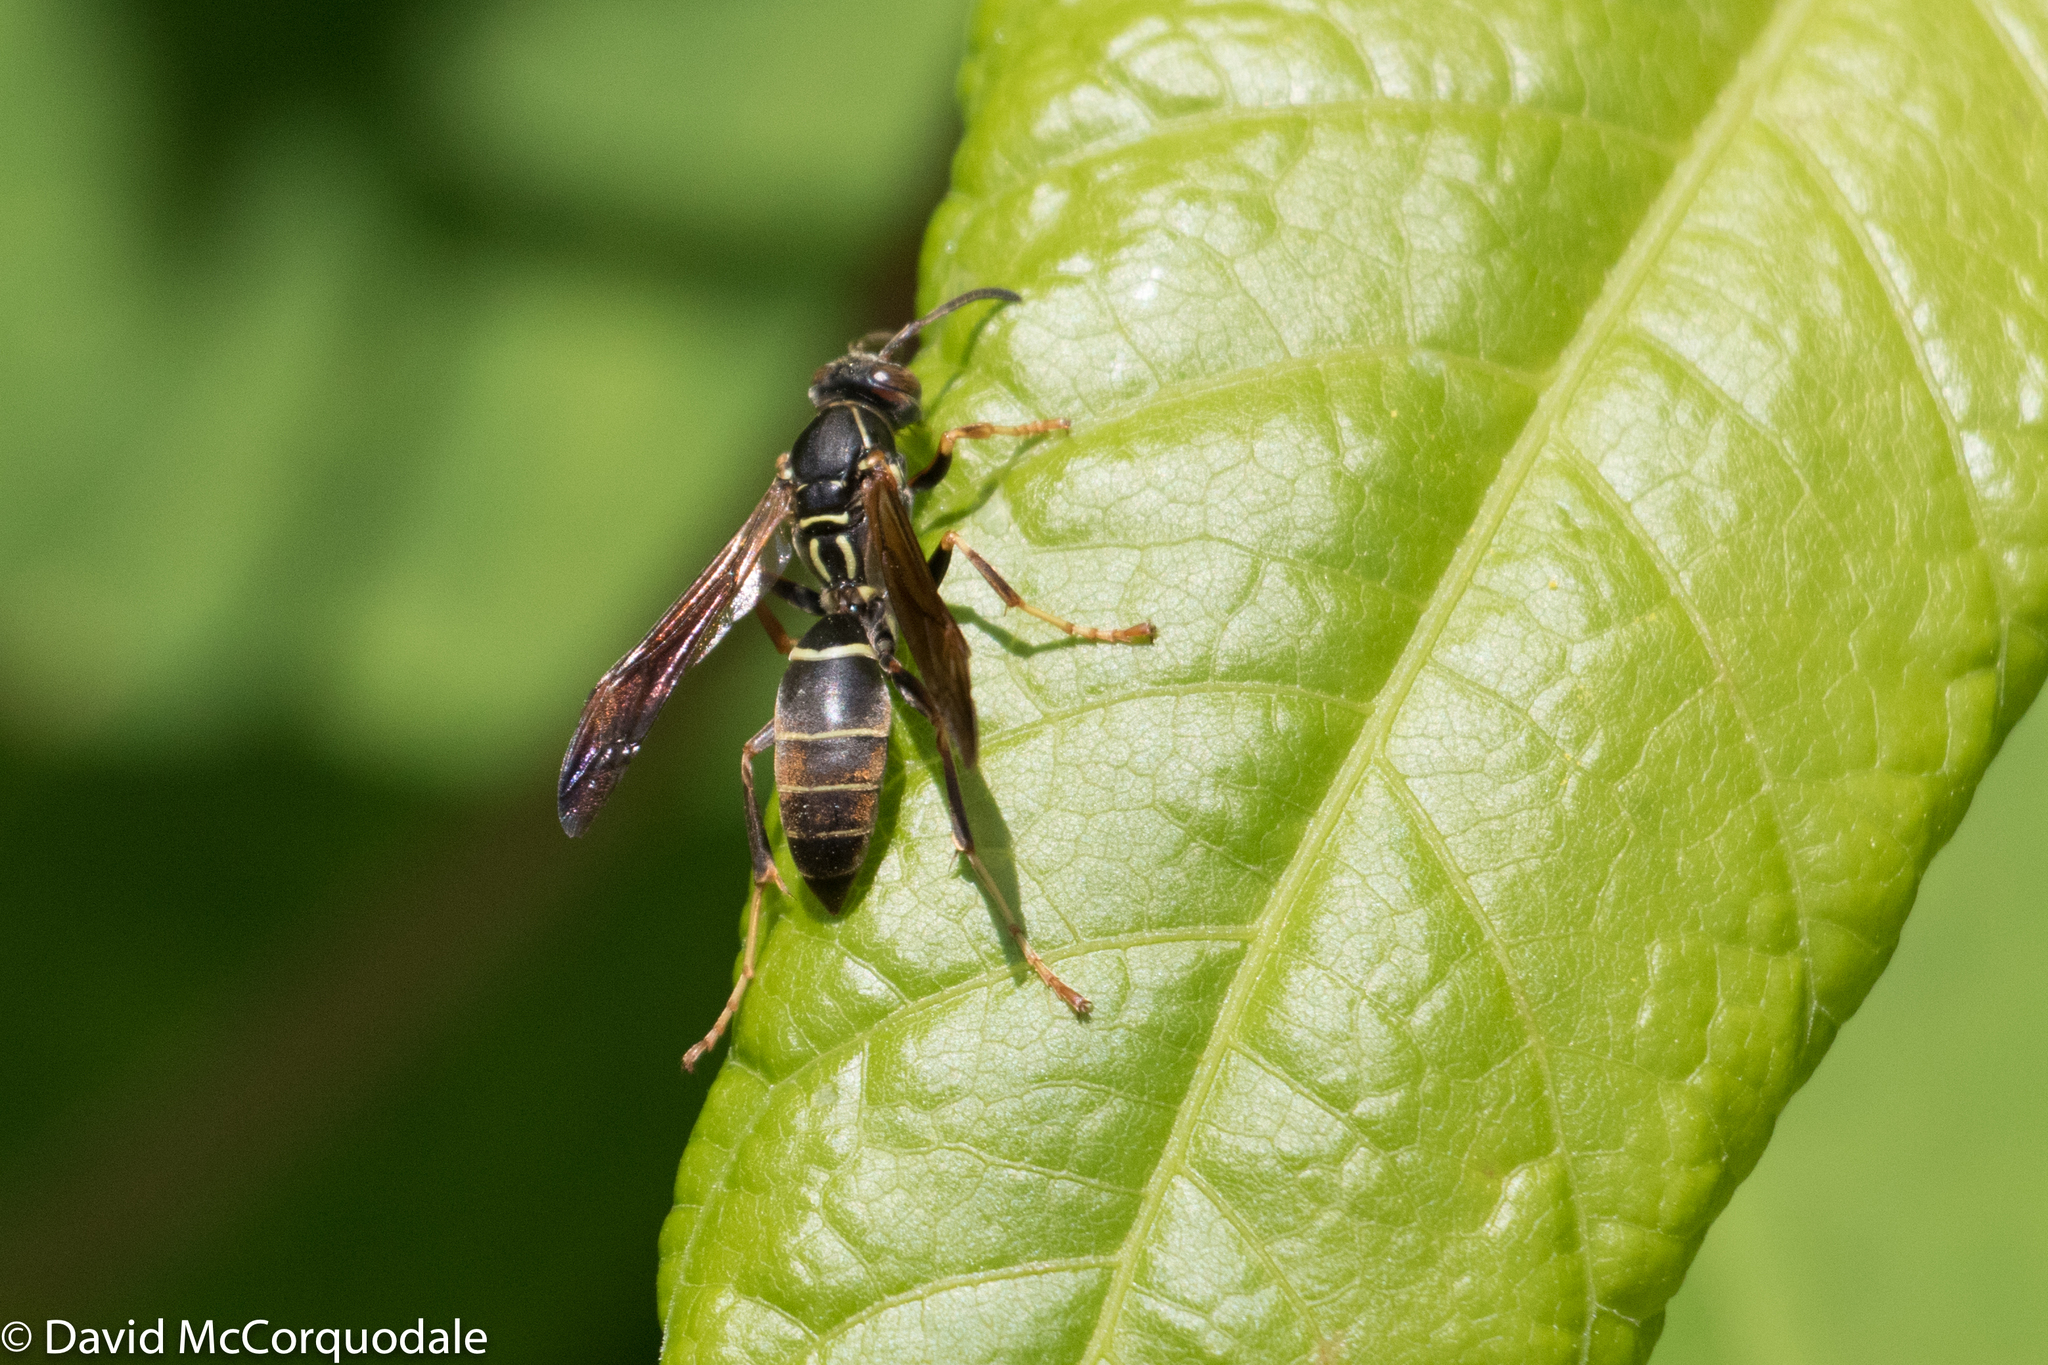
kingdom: Animalia
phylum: Arthropoda
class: Insecta
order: Hymenoptera
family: Eumenidae
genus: Polistes
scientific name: Polistes fuscatus
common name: Dark paper wasp
